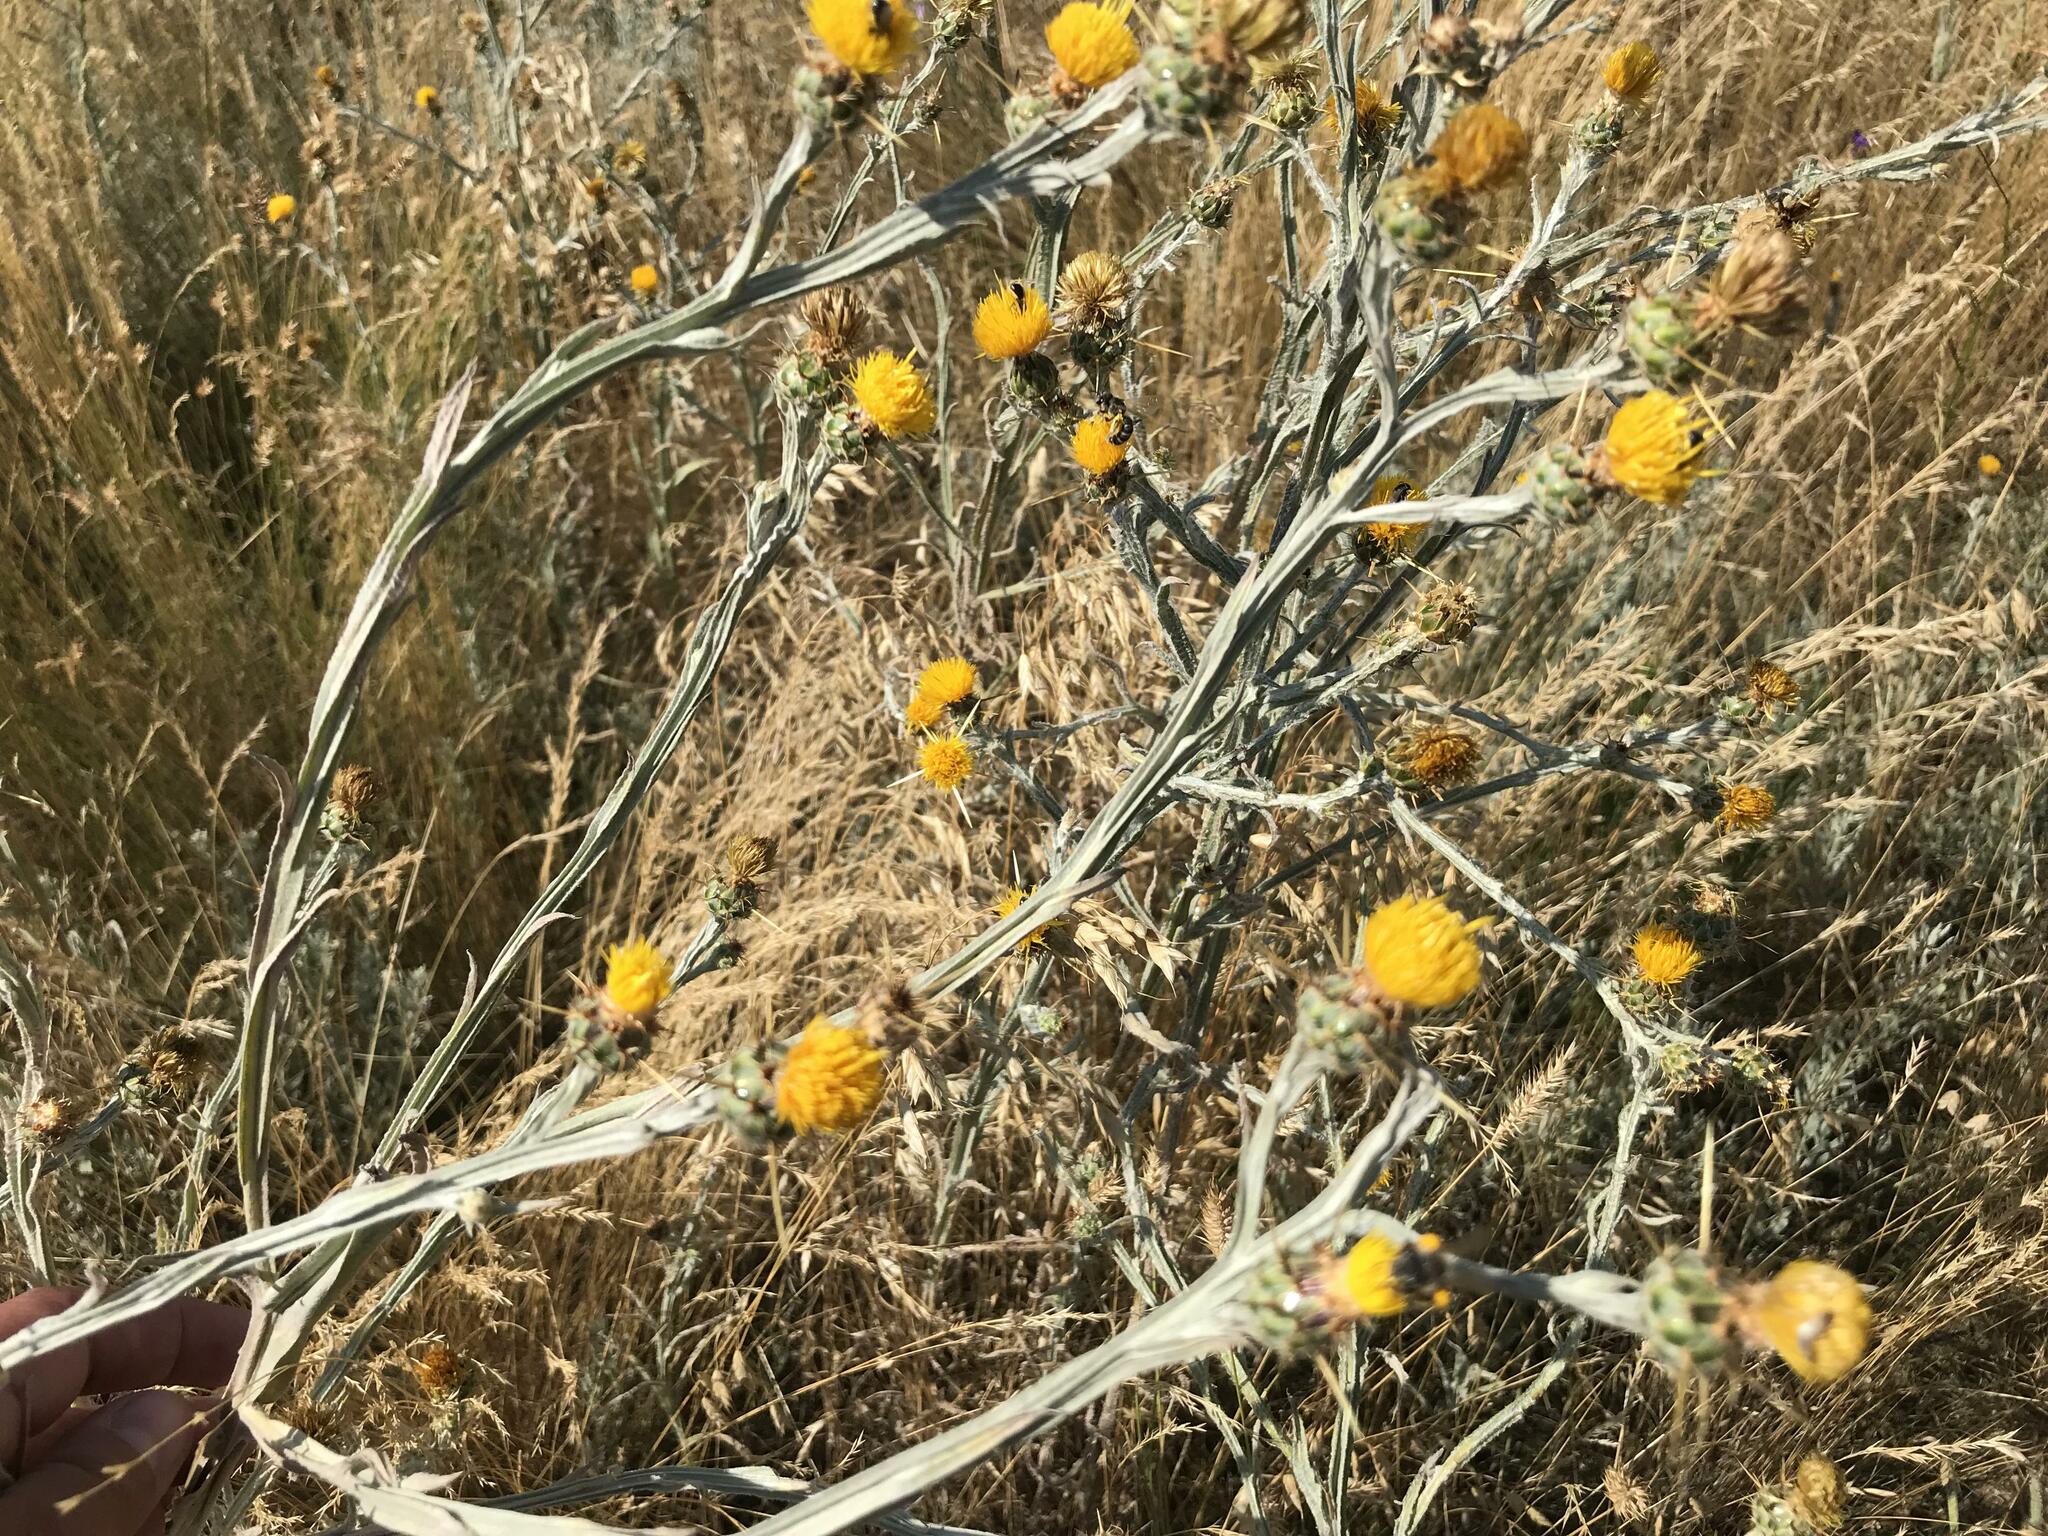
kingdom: Plantae
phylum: Tracheophyta
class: Magnoliopsida
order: Asterales
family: Asteraceae
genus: Centaurea
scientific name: Centaurea solstitialis
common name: Yellow star-thistle
